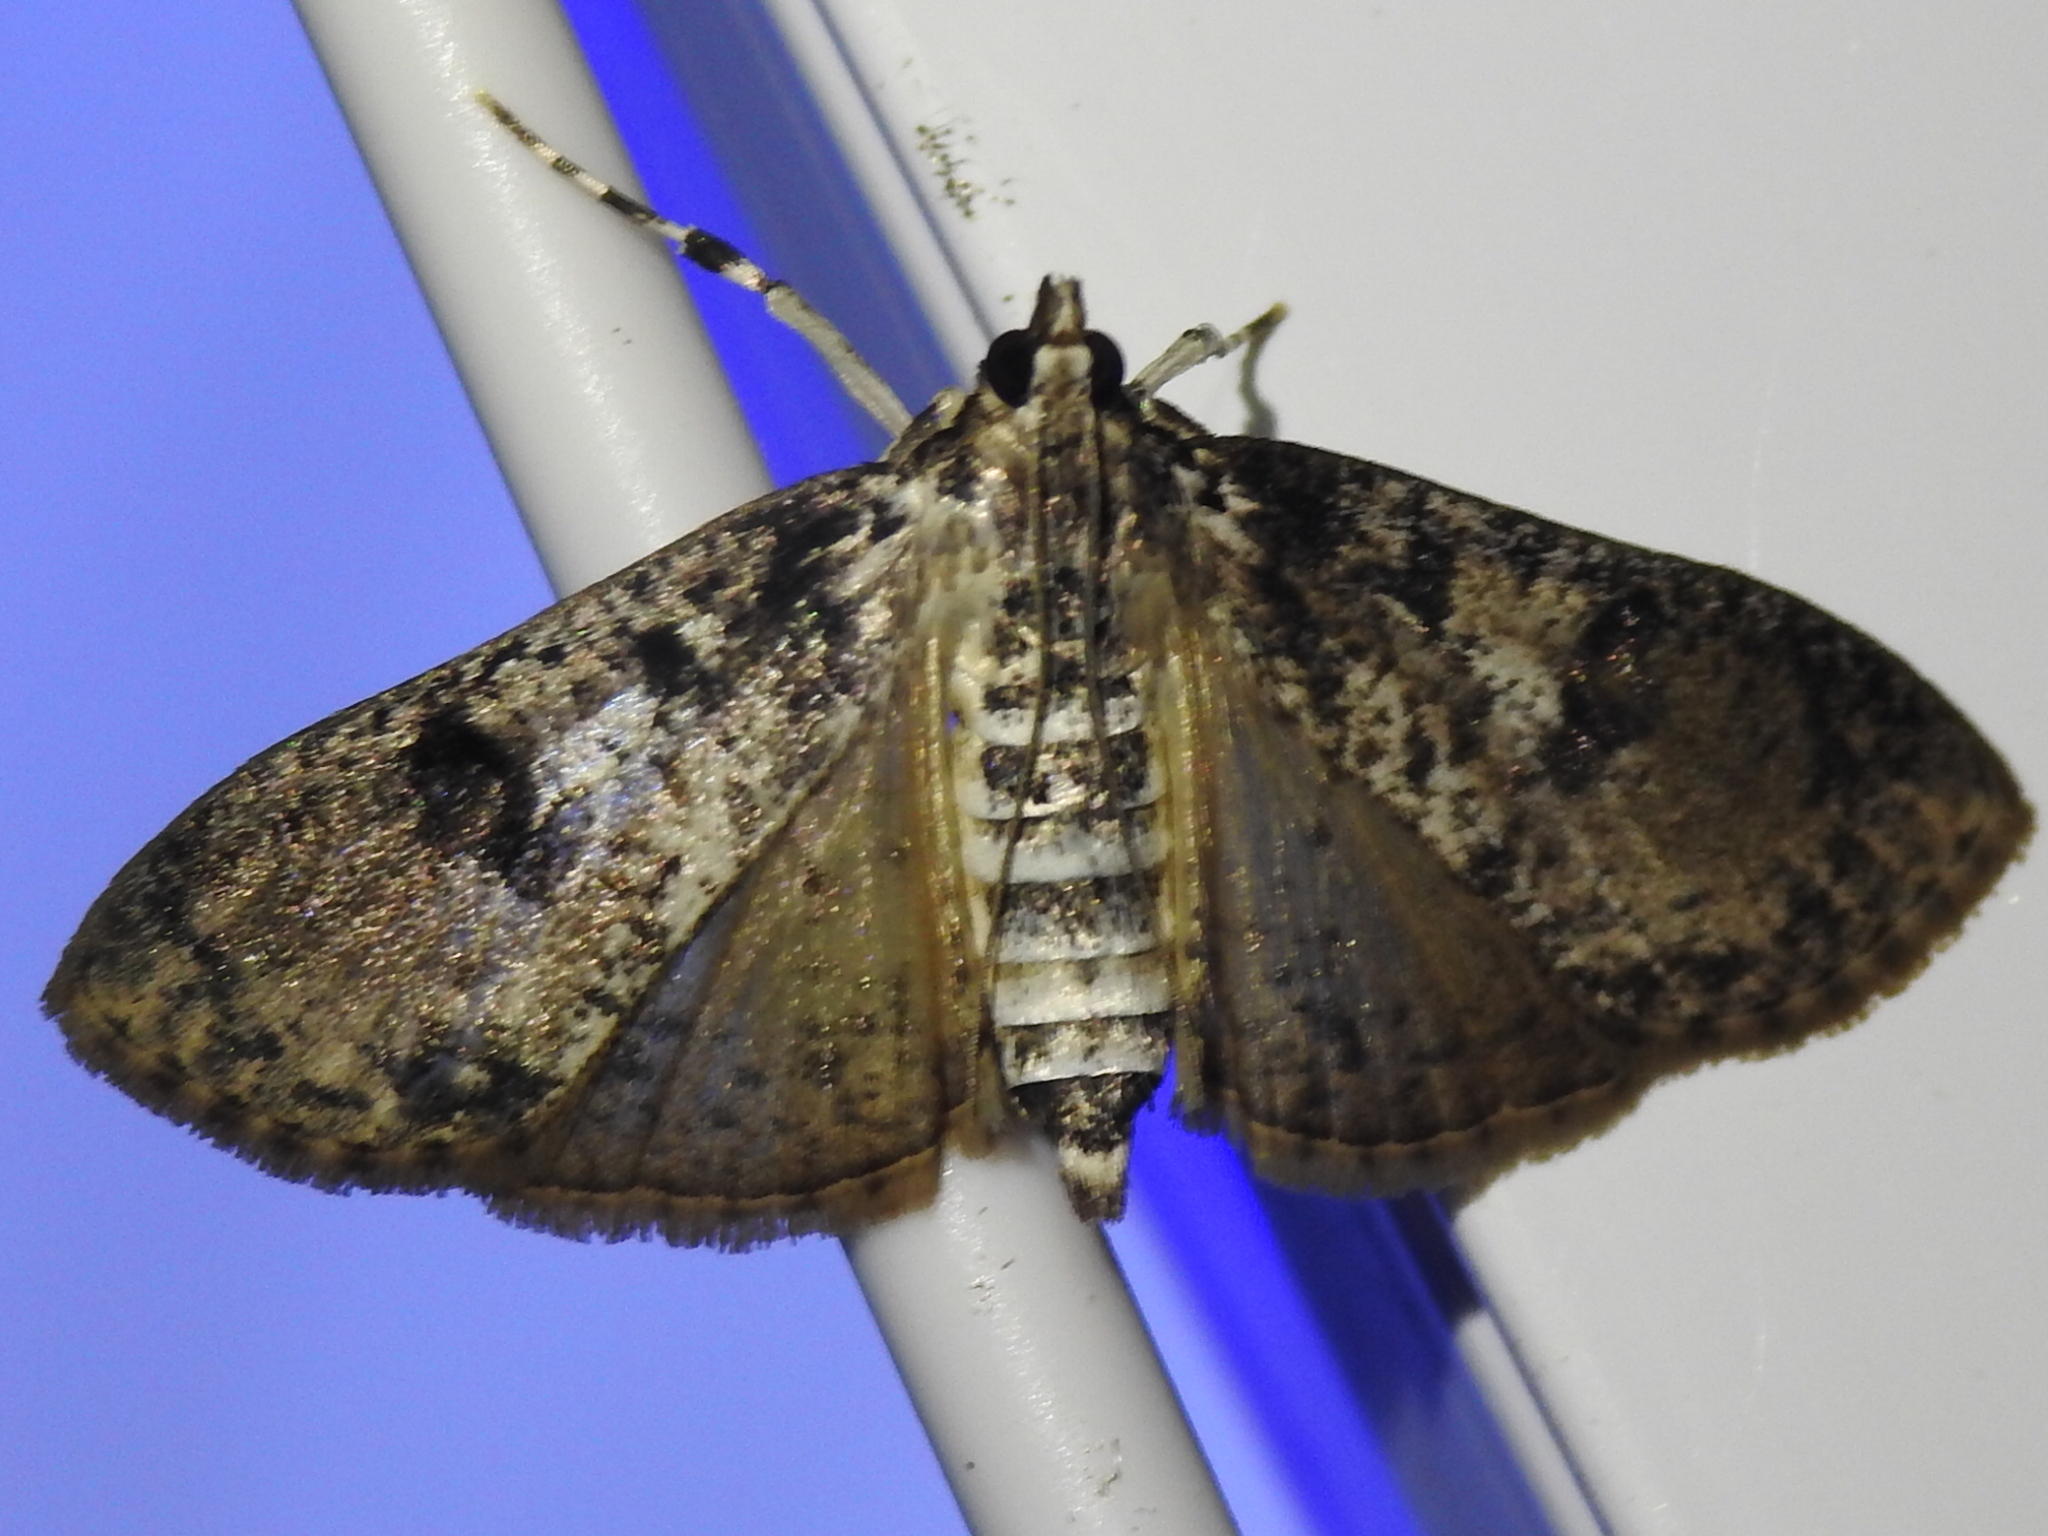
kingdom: Animalia
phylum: Arthropoda
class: Insecta
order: Lepidoptera
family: Crambidae
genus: Palpita
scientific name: Palpita magniferalis
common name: Splendid palpita moth
